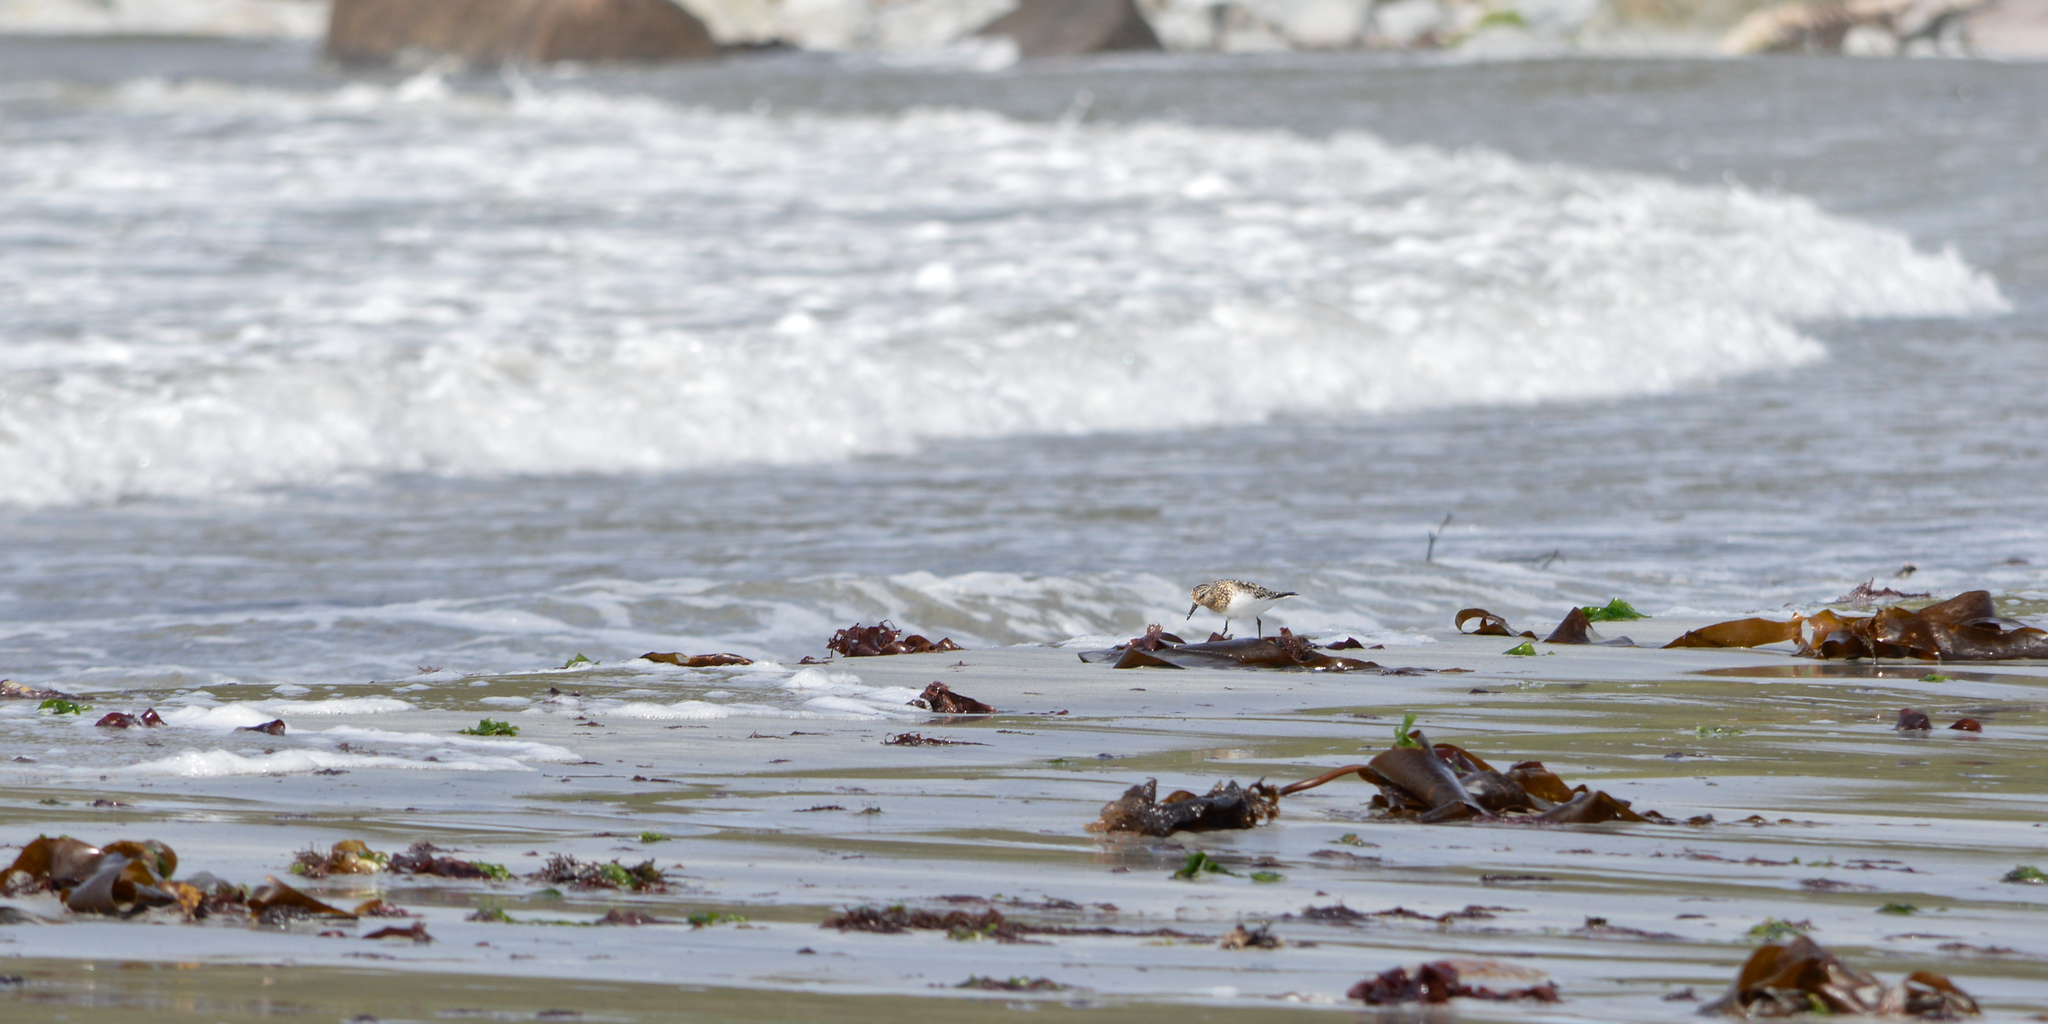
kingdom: Animalia
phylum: Chordata
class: Aves
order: Charadriiformes
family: Scolopacidae
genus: Calidris
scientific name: Calidris alba
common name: Sanderling
